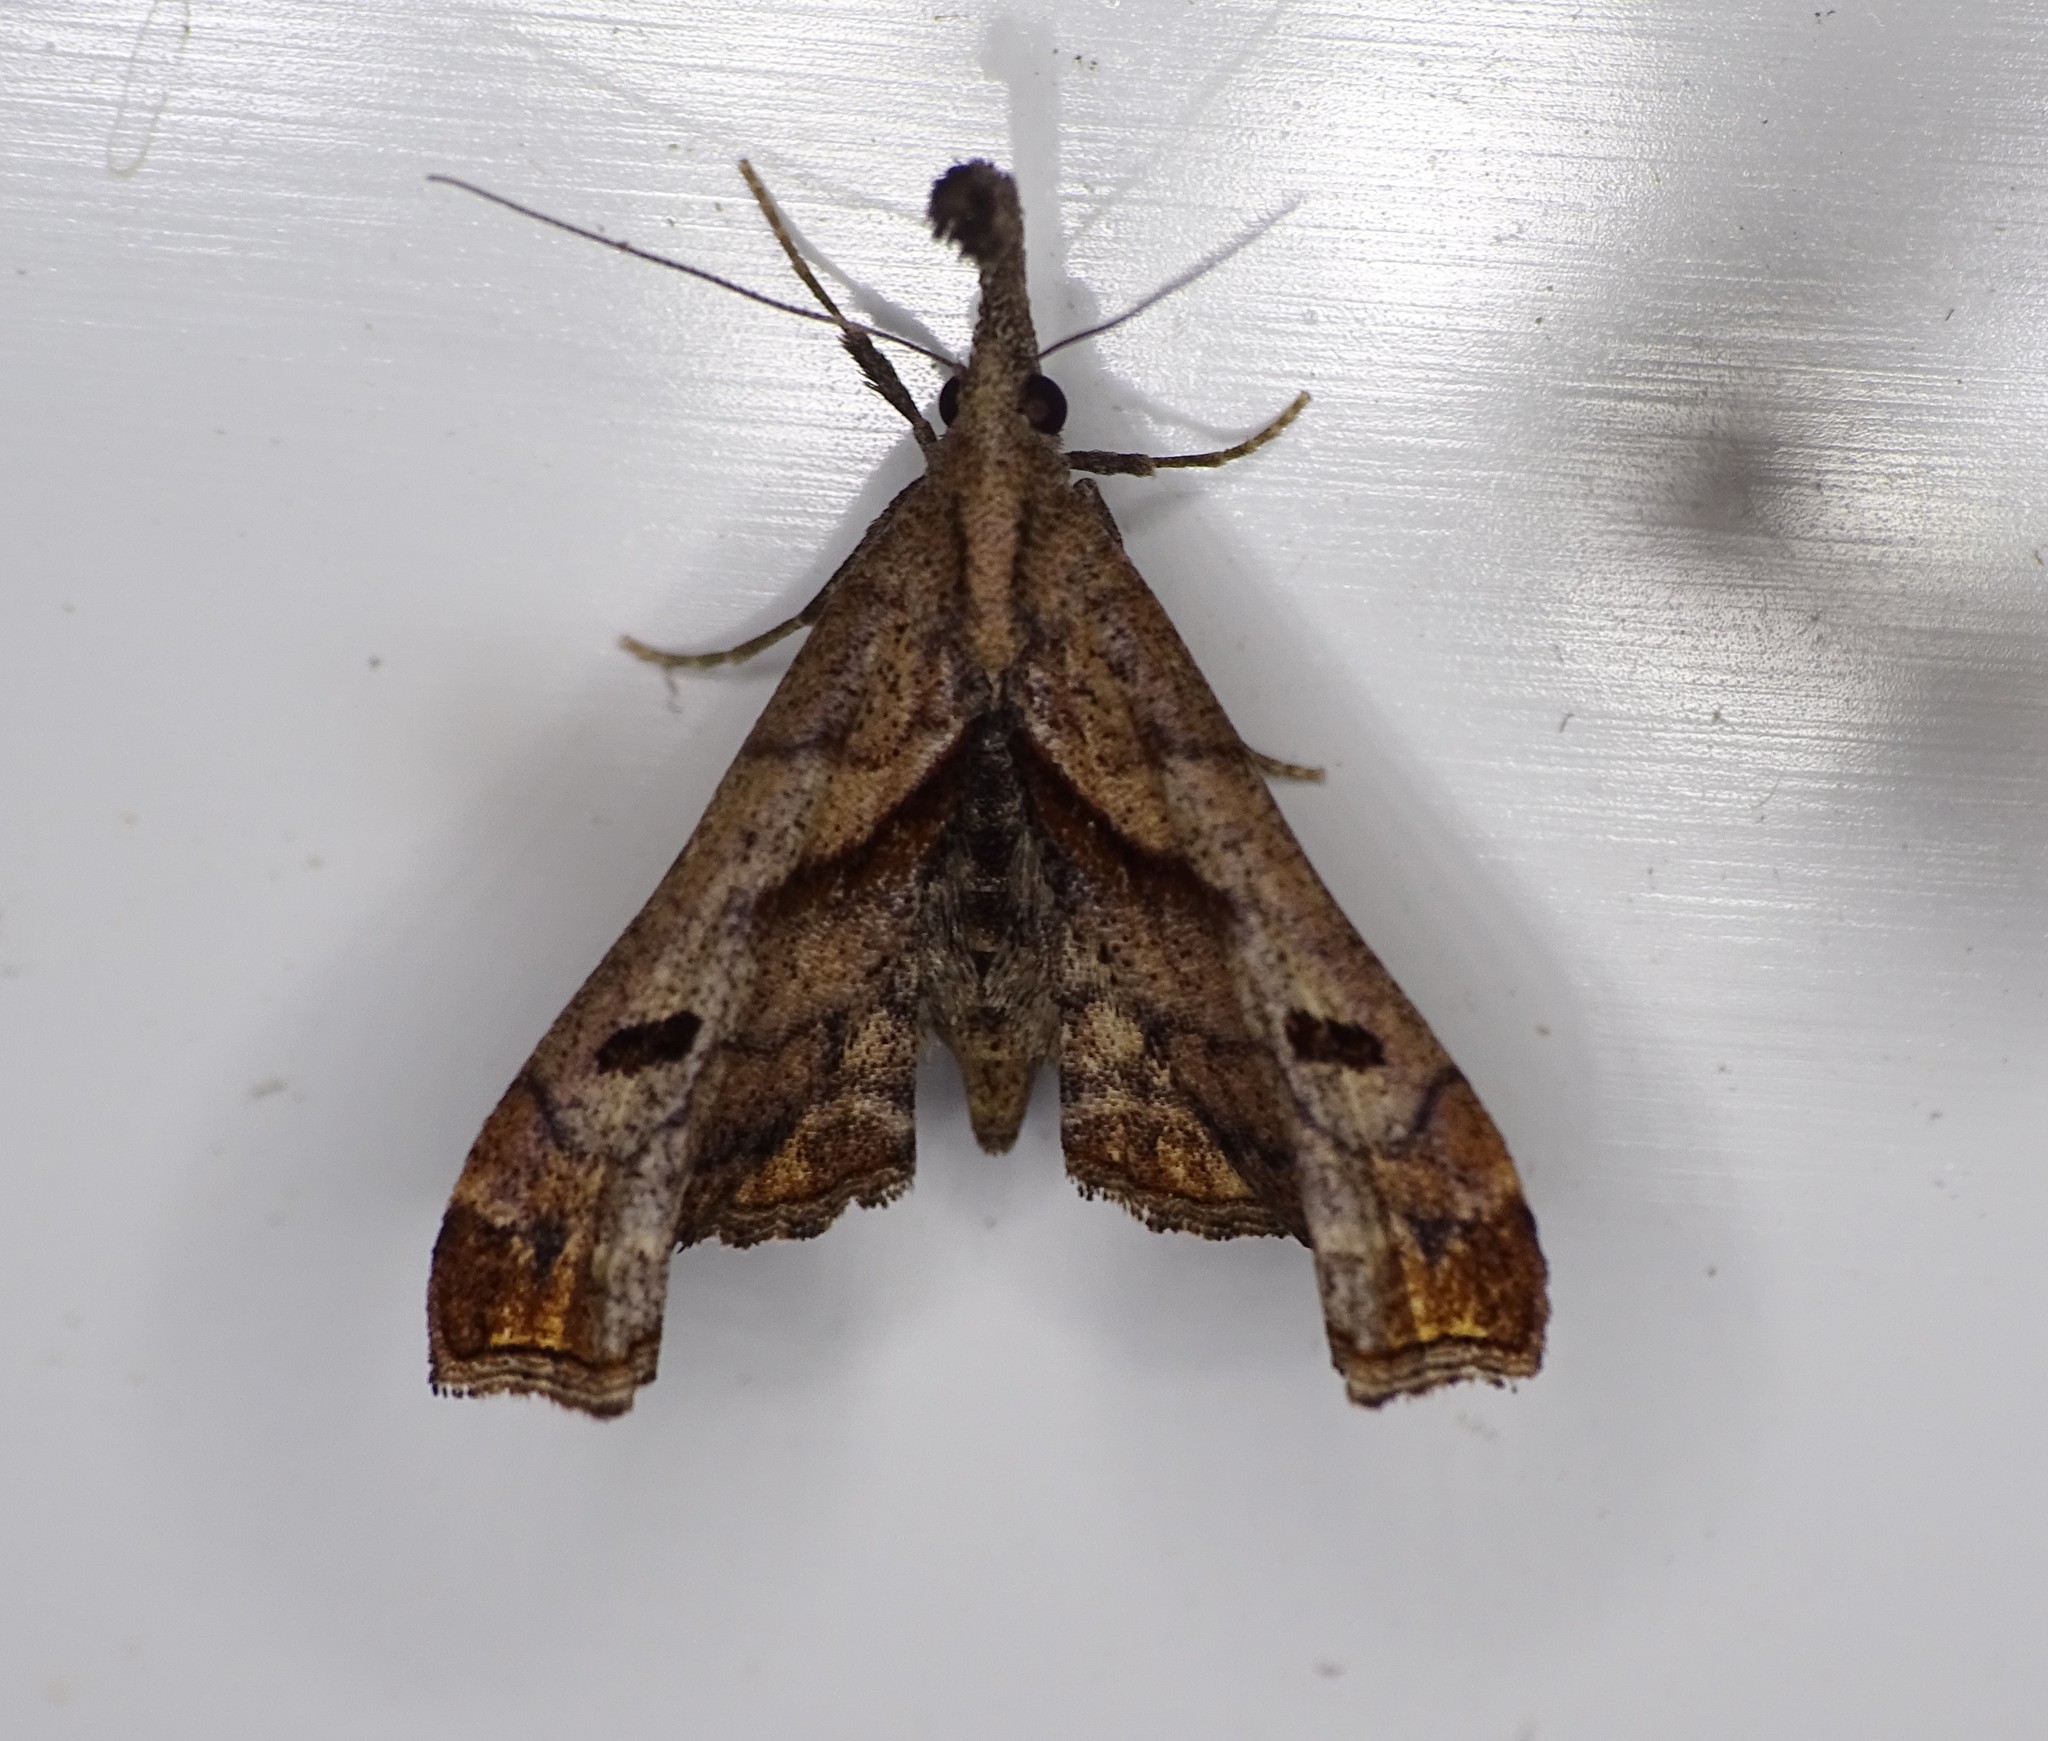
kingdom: Animalia
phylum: Arthropoda
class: Insecta
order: Lepidoptera
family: Erebidae
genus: Palthis
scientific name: Palthis angulalis
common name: Dark-spotted palthis moth
